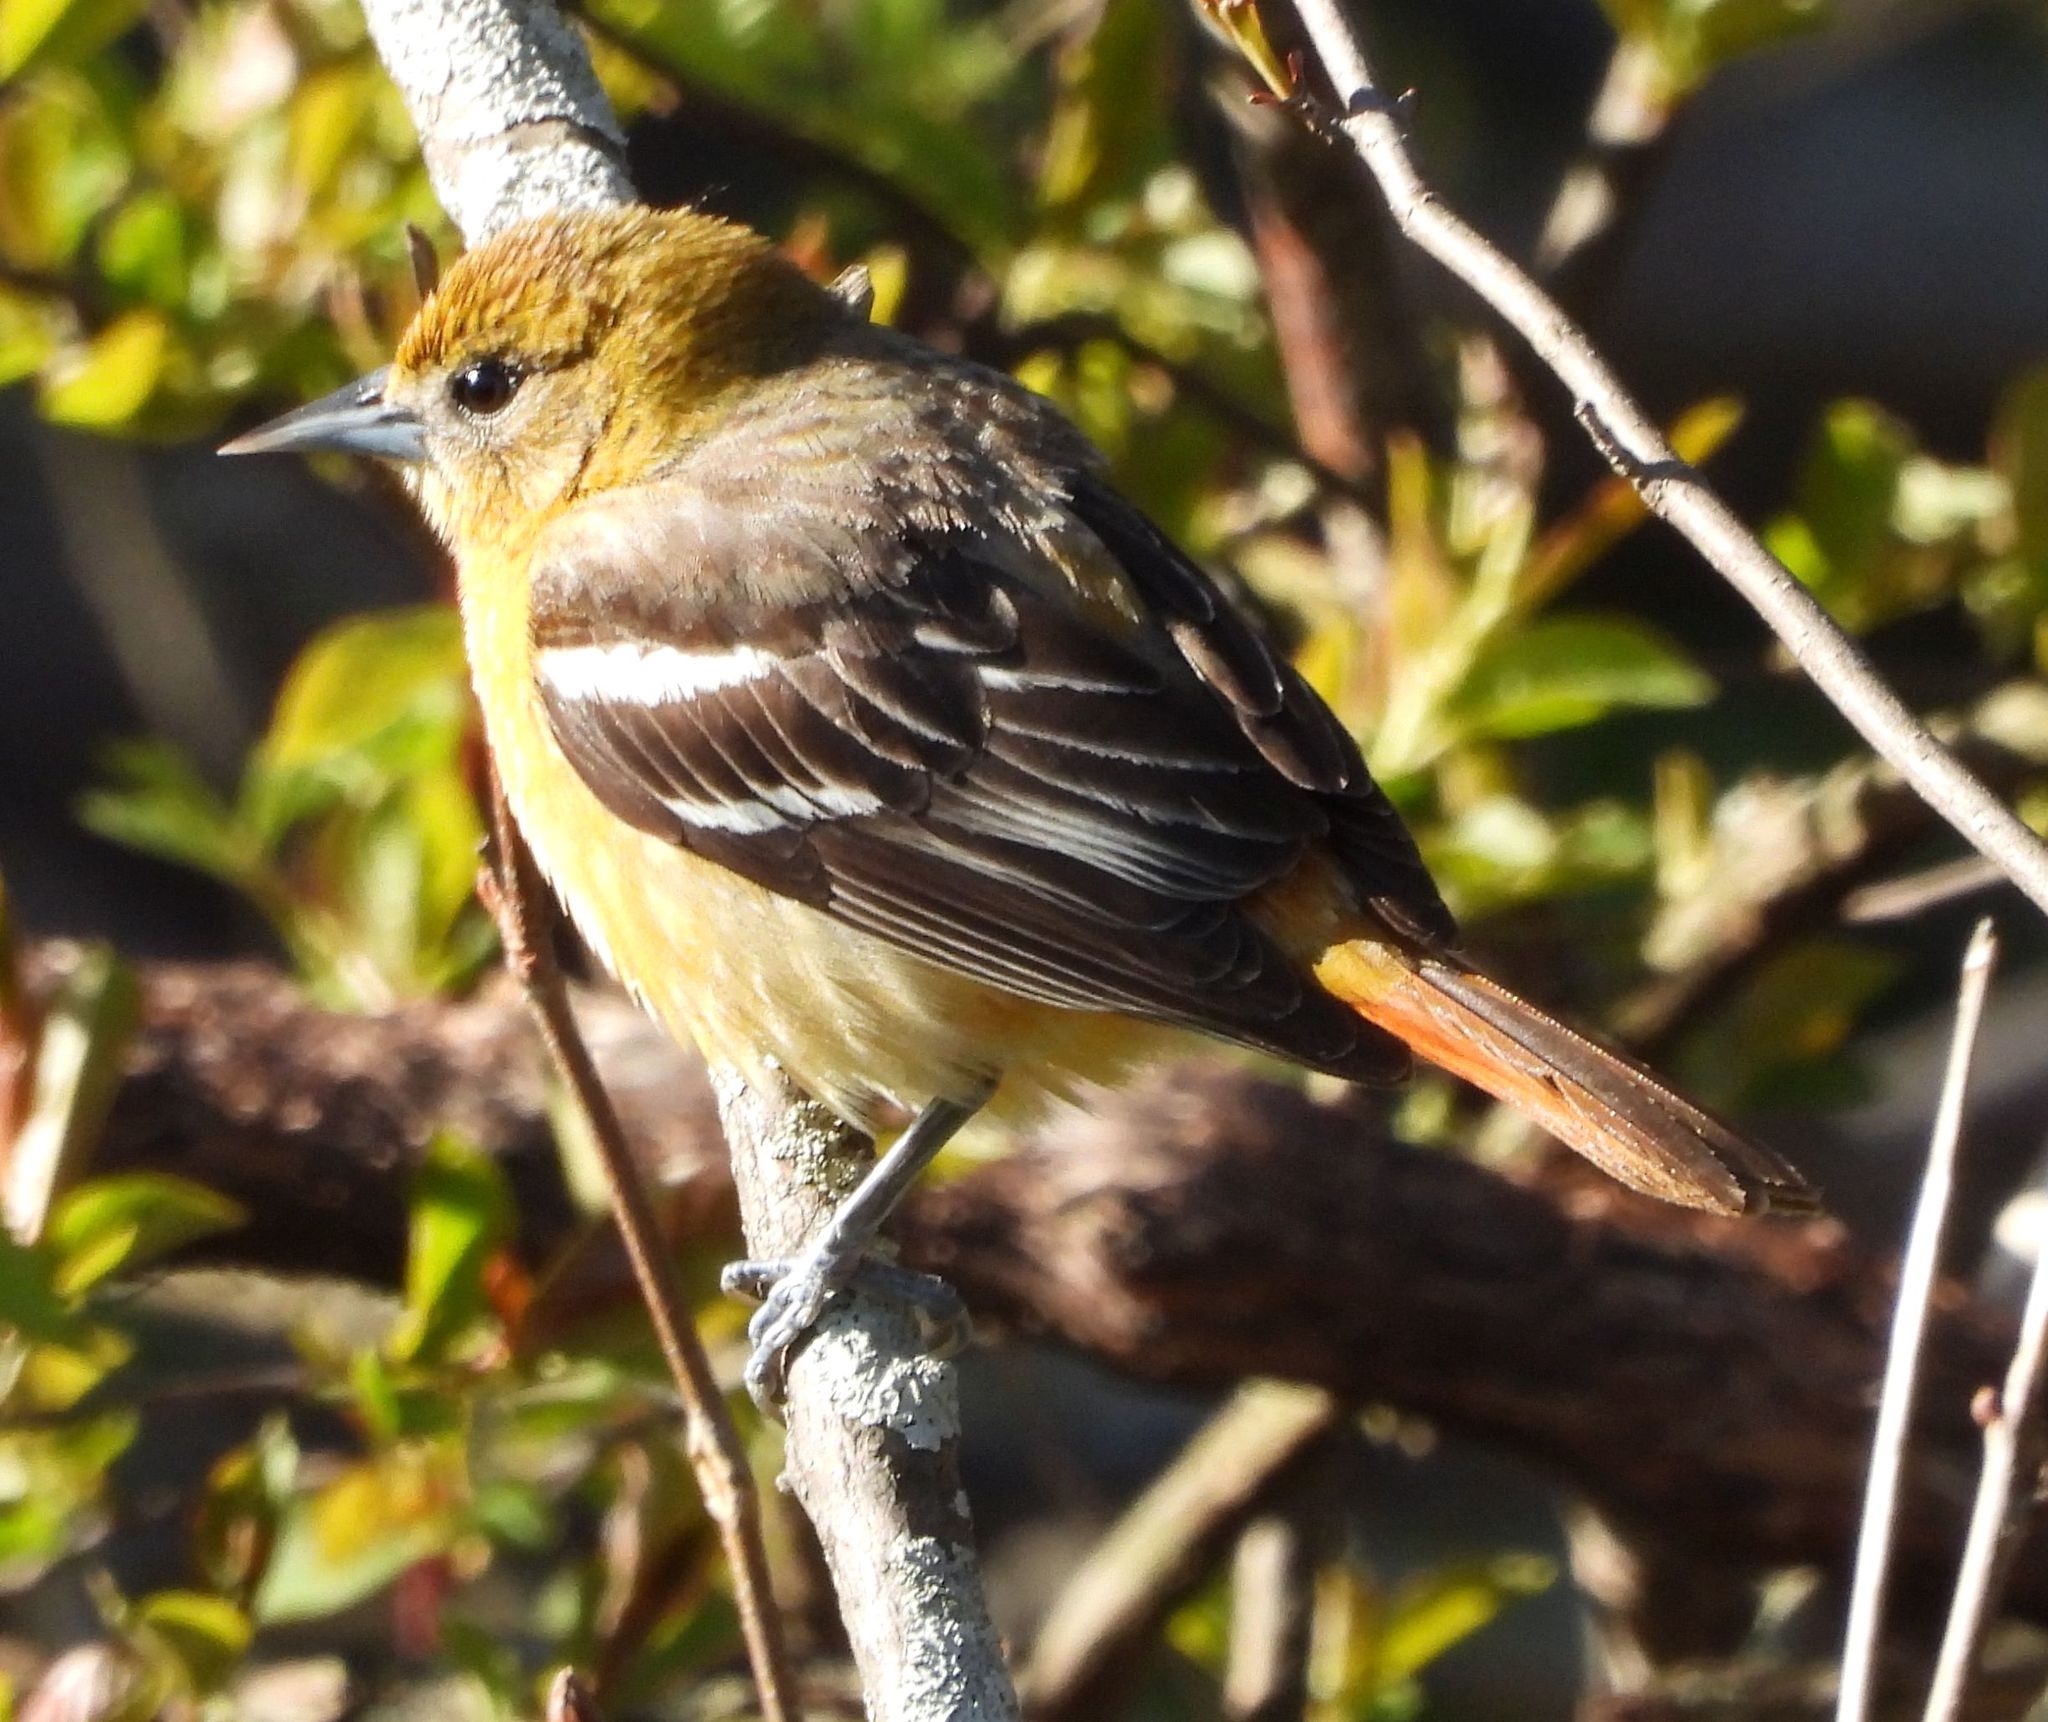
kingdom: Animalia
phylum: Chordata
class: Aves
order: Passeriformes
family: Icteridae
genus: Icterus
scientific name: Icterus galbula
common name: Baltimore oriole
